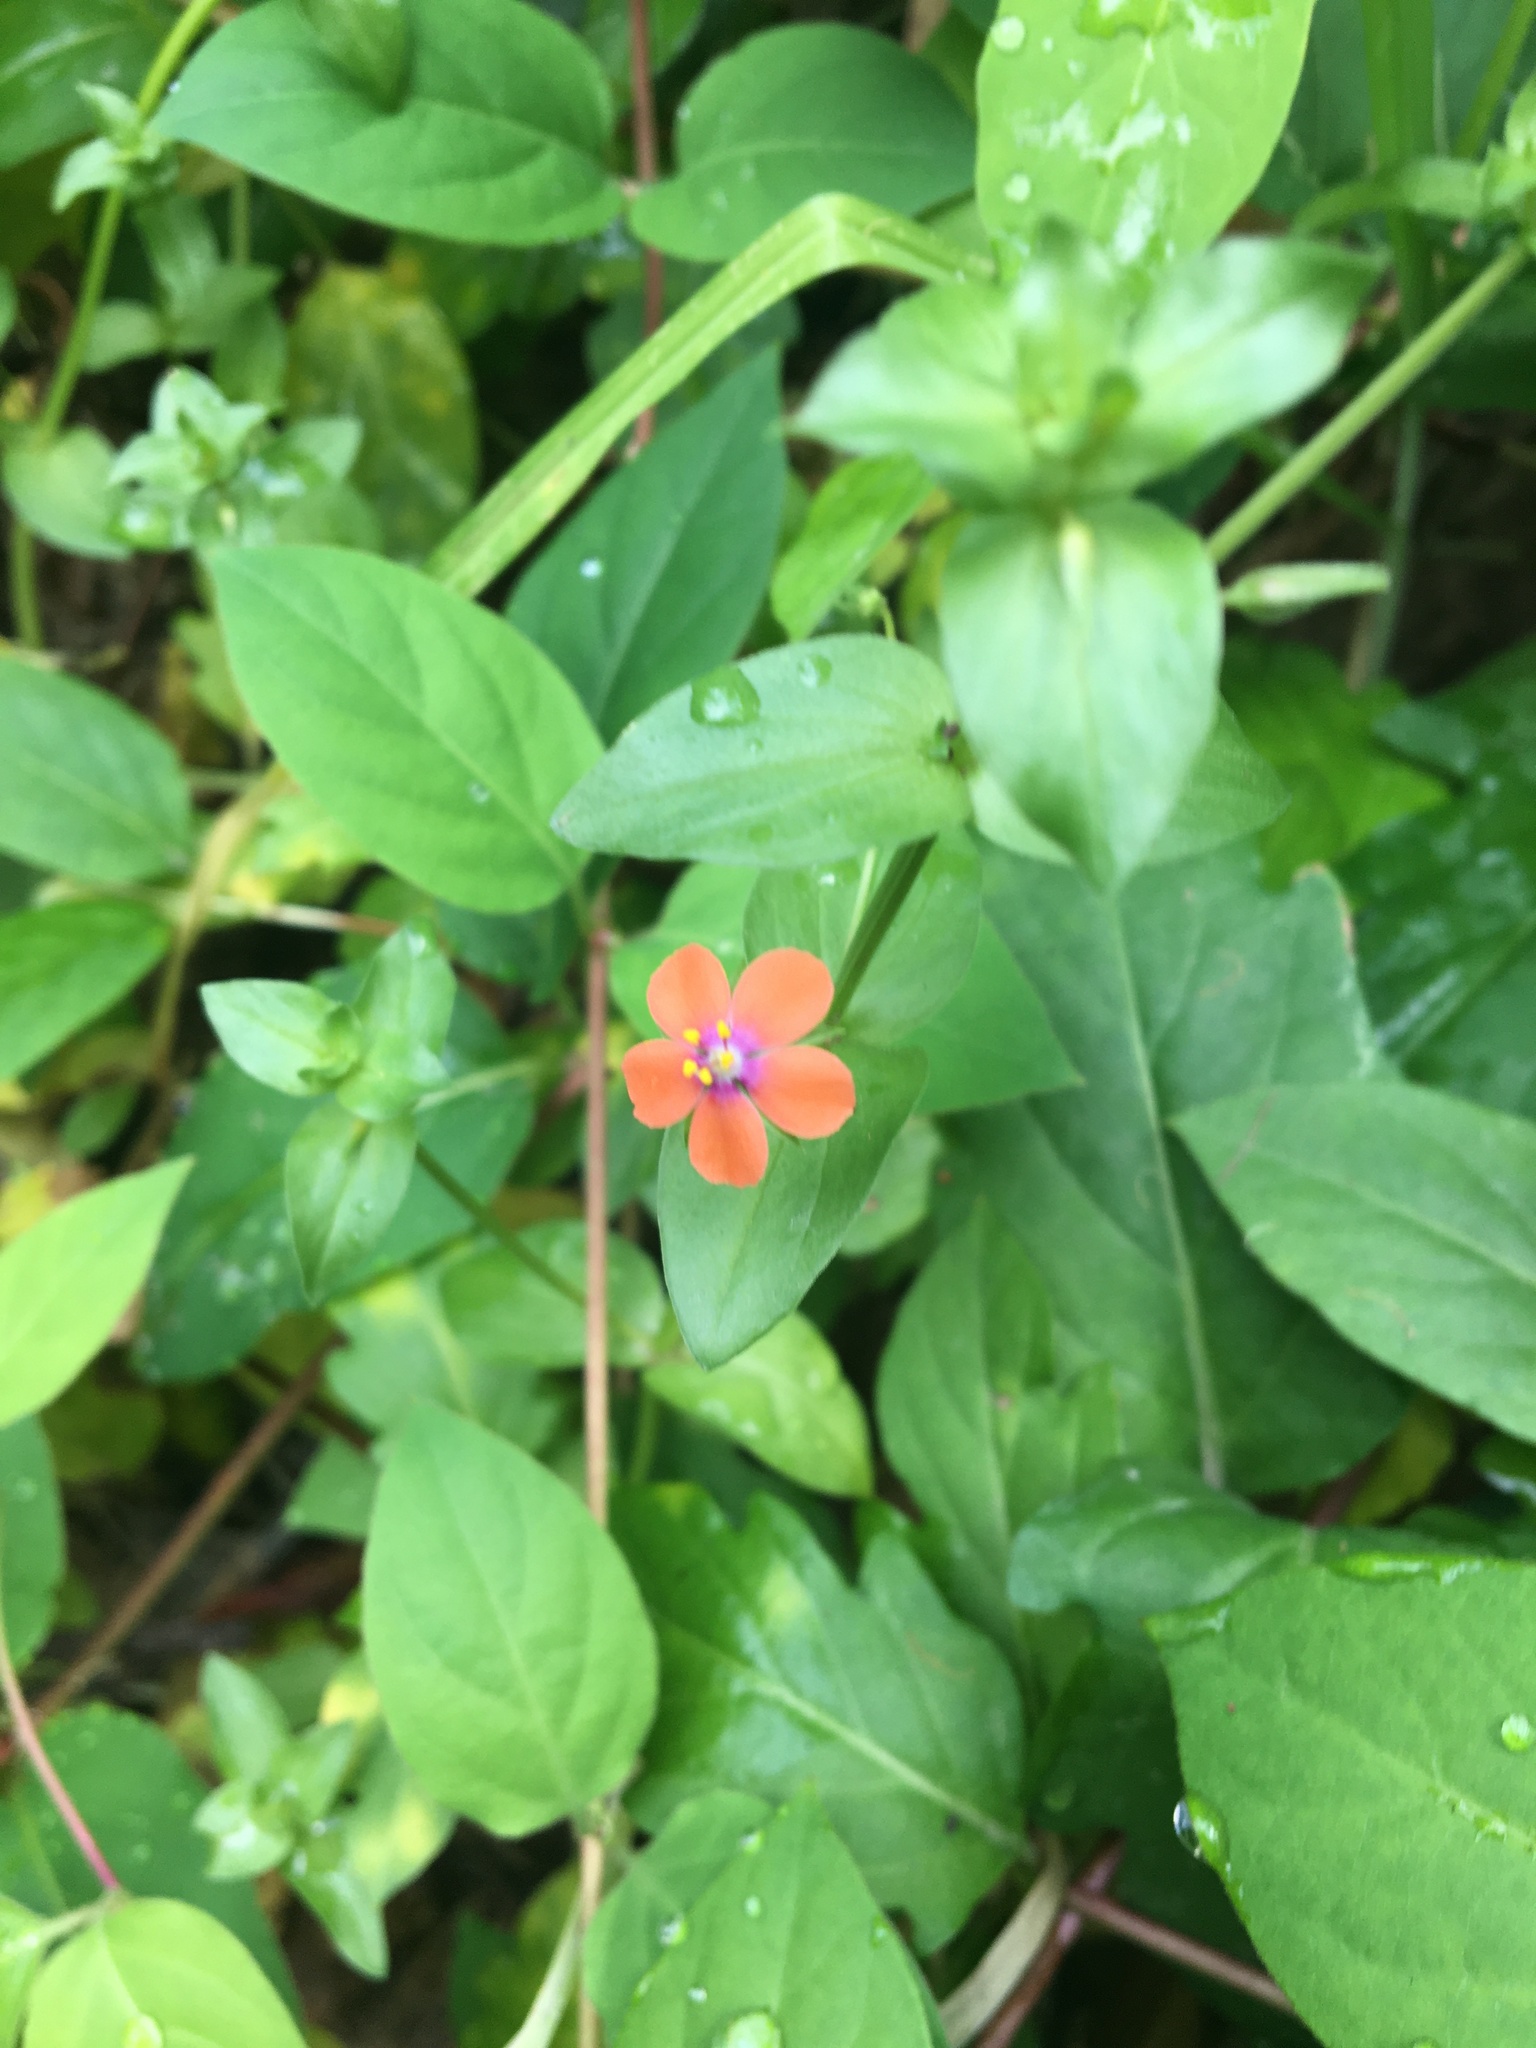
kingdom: Plantae
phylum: Tracheophyta
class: Magnoliopsida
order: Ericales
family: Primulaceae
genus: Lysimachia
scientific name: Lysimachia arvensis
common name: Scarlet pimpernel
